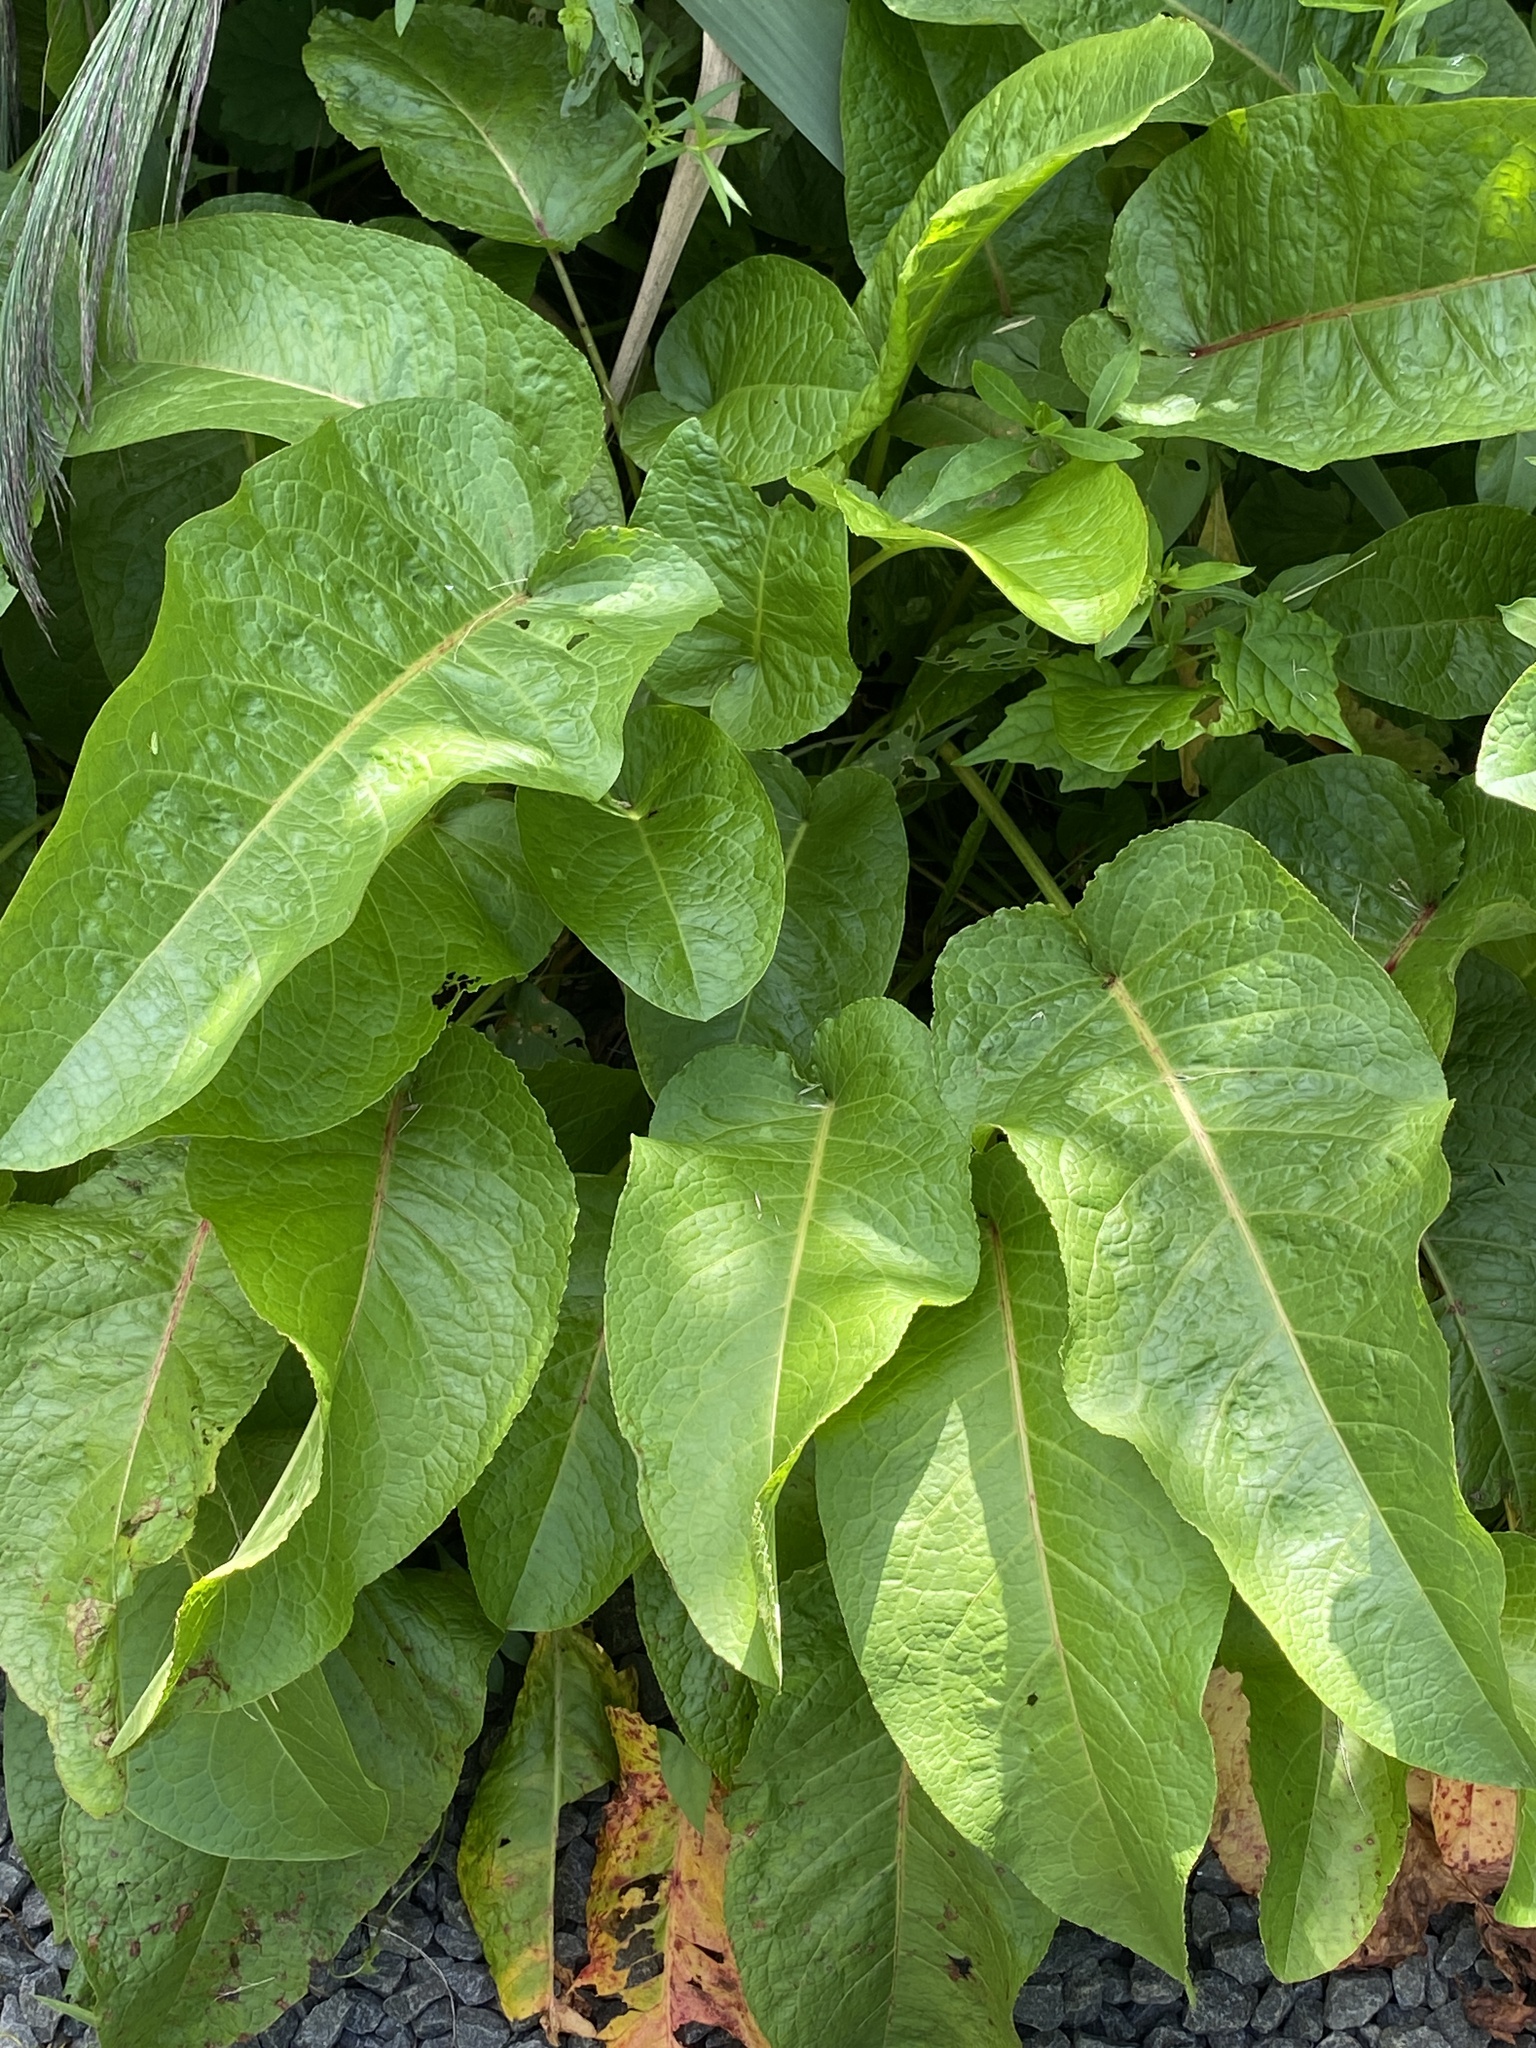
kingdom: Plantae
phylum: Tracheophyta
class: Magnoliopsida
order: Caryophyllales
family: Polygonaceae
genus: Rumex
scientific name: Rumex obtusifolius
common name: Bitter dock
